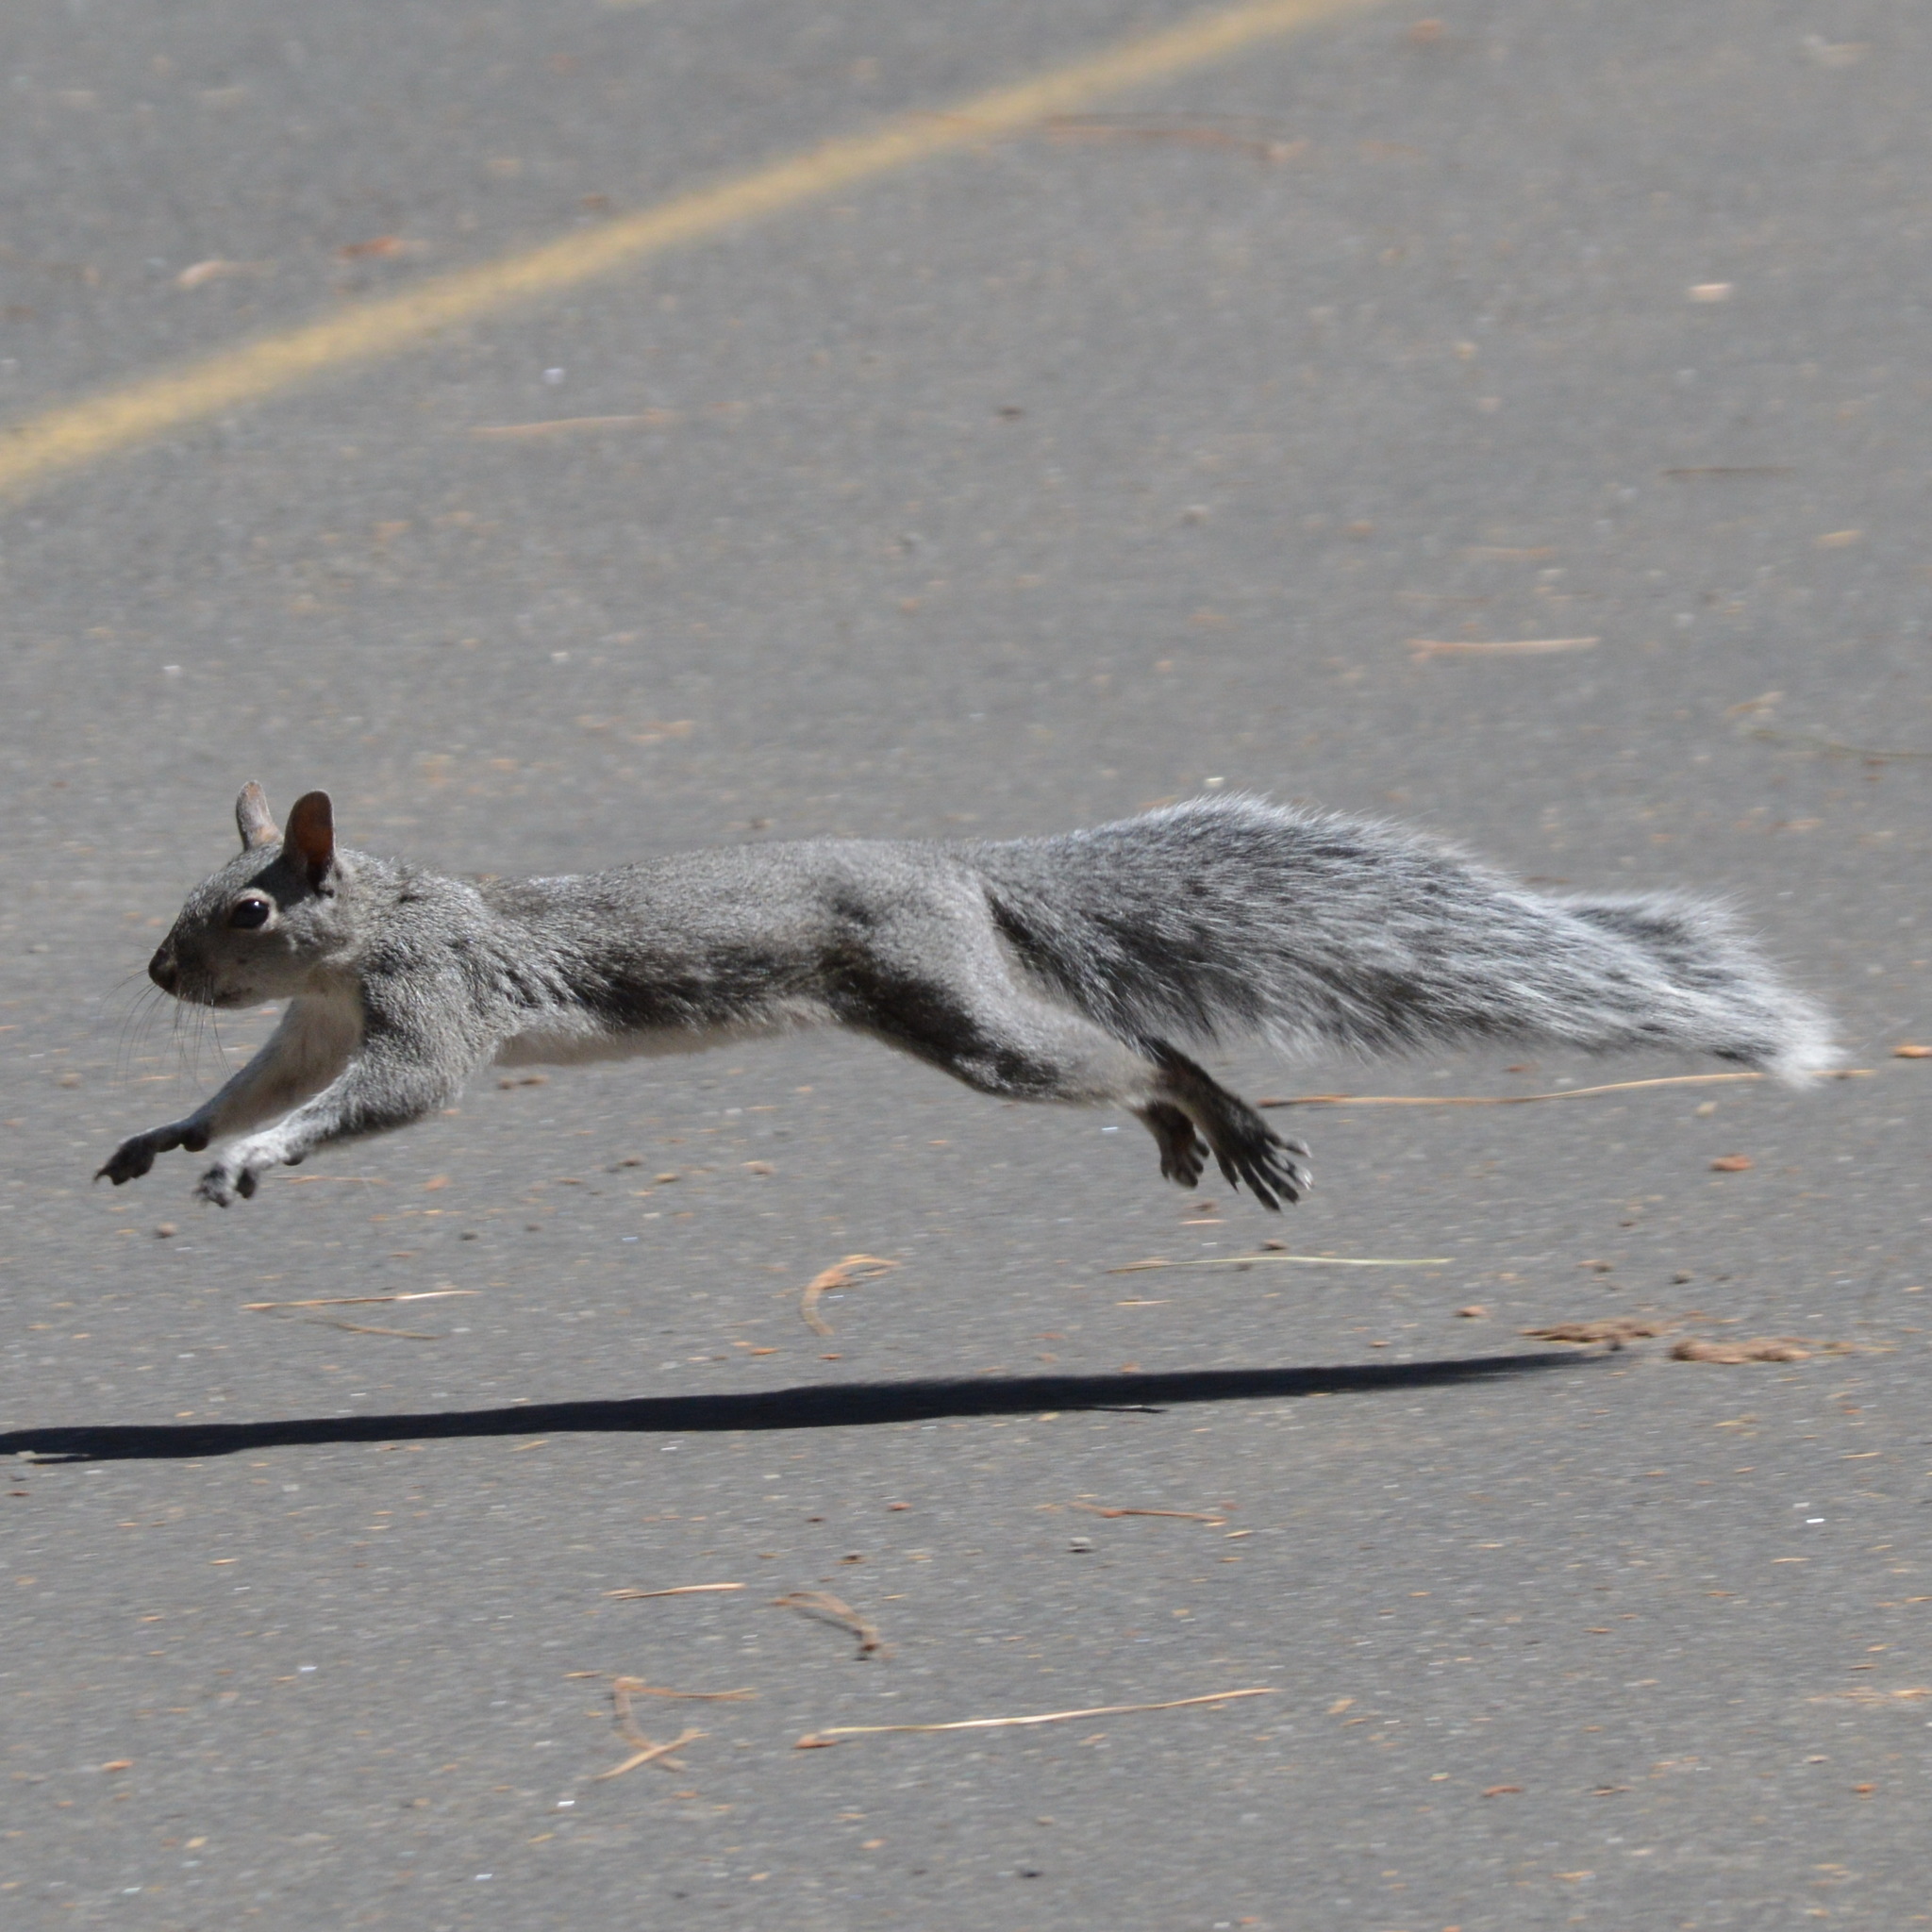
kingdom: Animalia
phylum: Chordata
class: Mammalia
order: Rodentia
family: Sciuridae
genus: Sciurus
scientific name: Sciurus griseus
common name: Western gray squirrel
